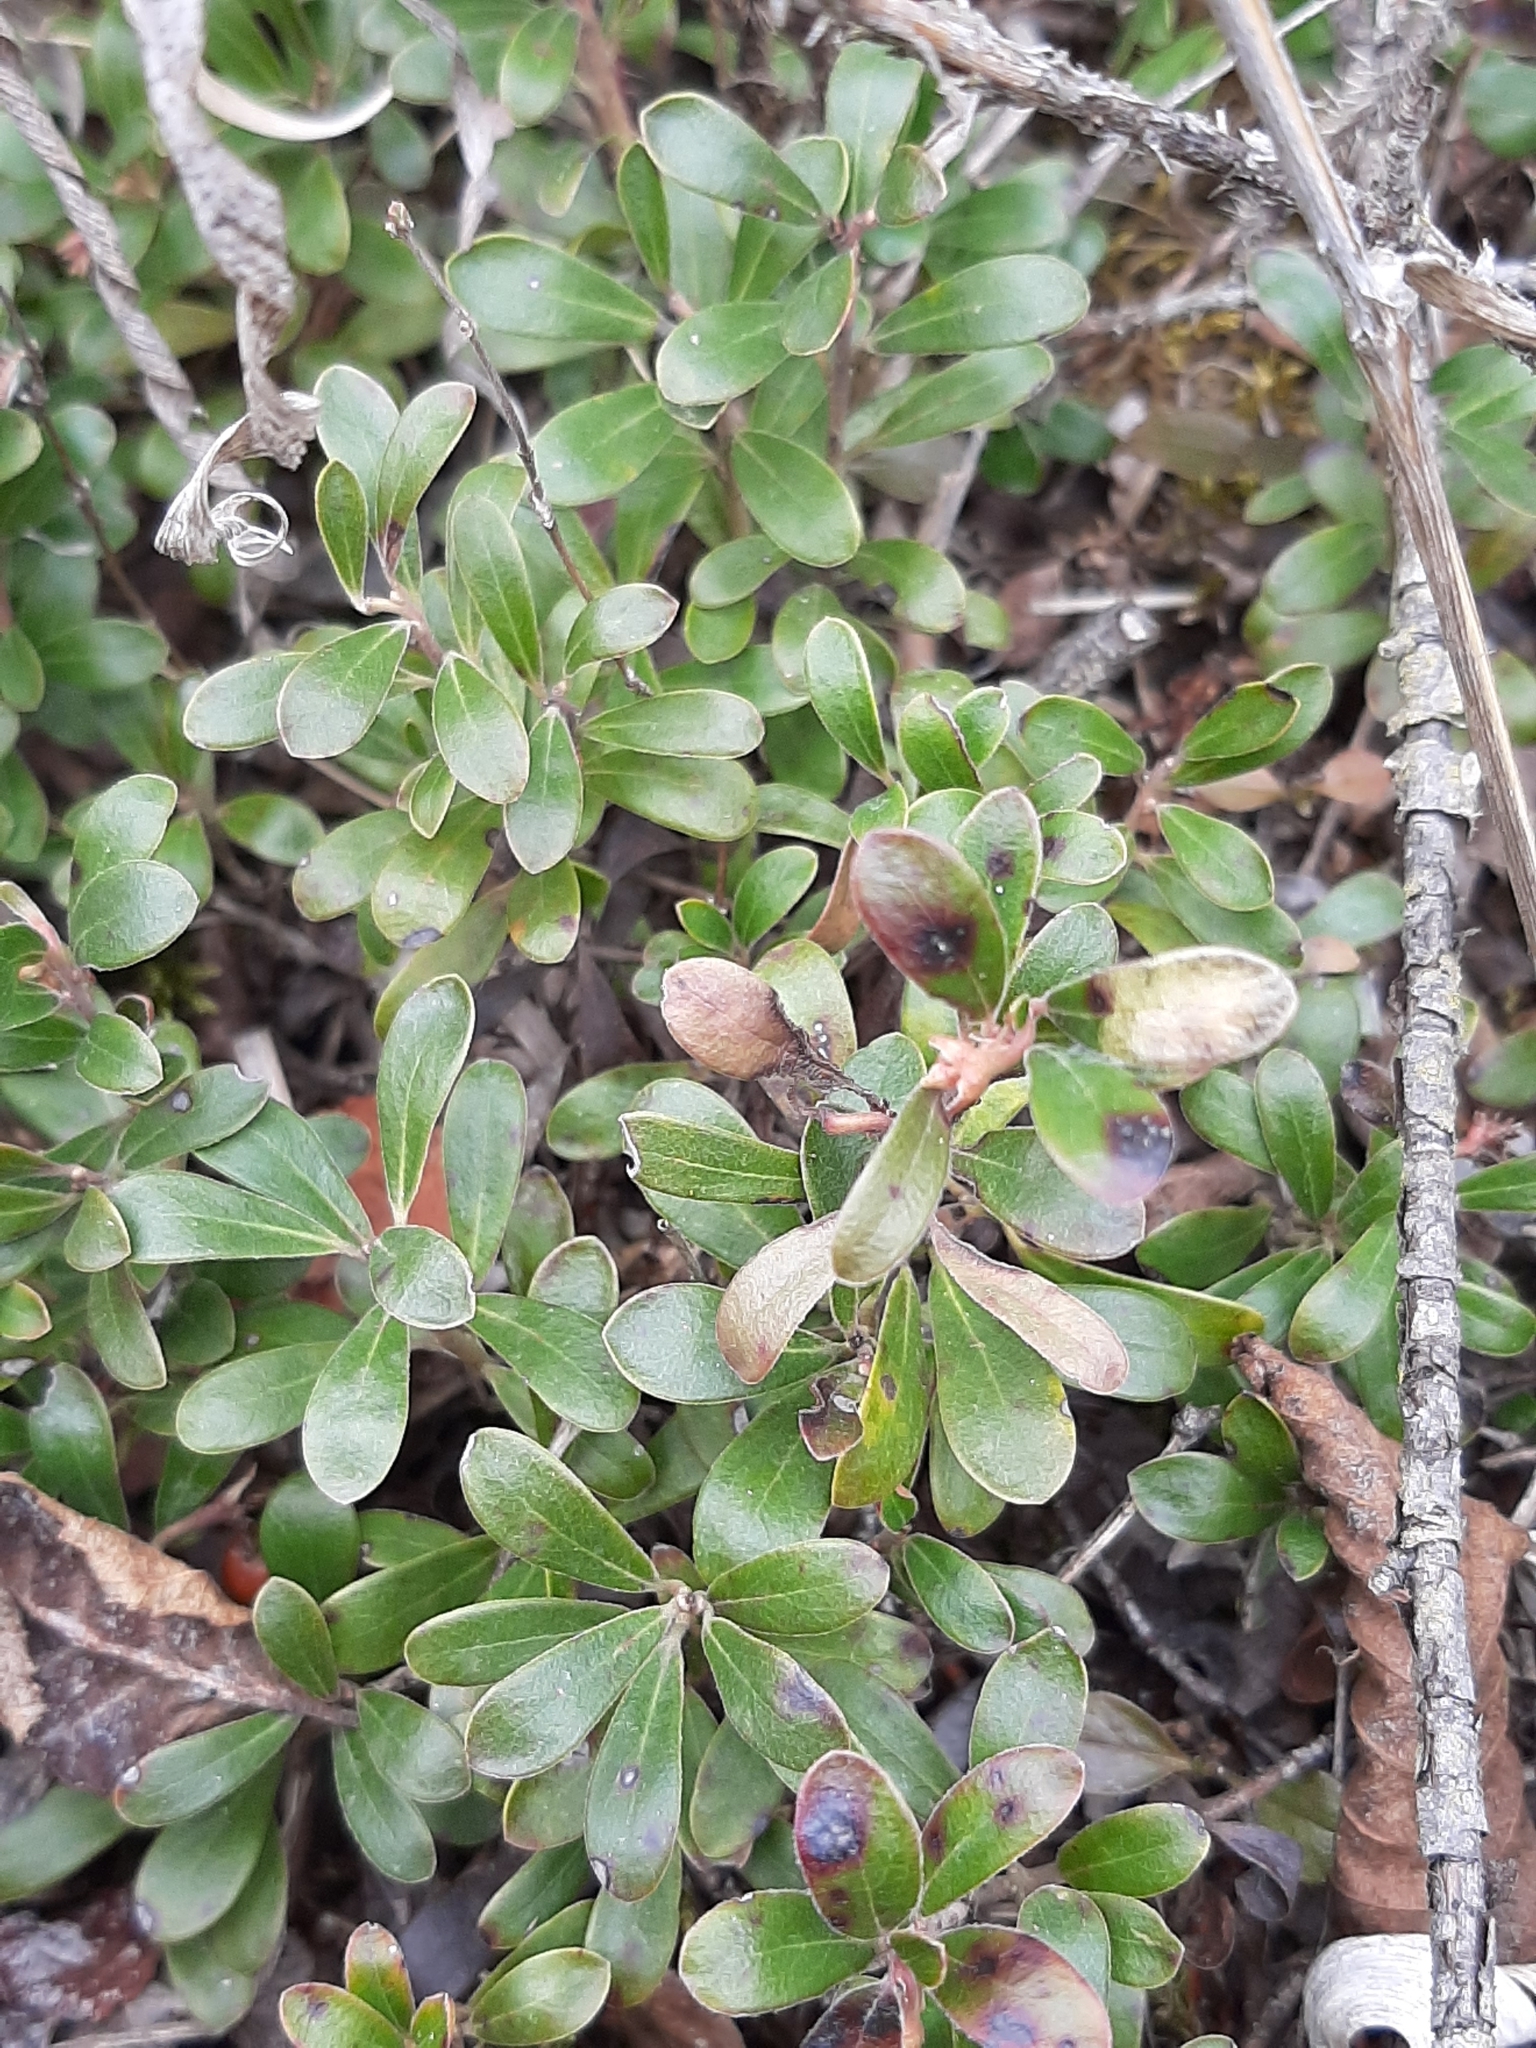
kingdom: Plantae
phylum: Tracheophyta
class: Magnoliopsida
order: Ericales
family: Ericaceae
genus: Arctostaphylos
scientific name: Arctostaphylos uva-ursi
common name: Bearberry
